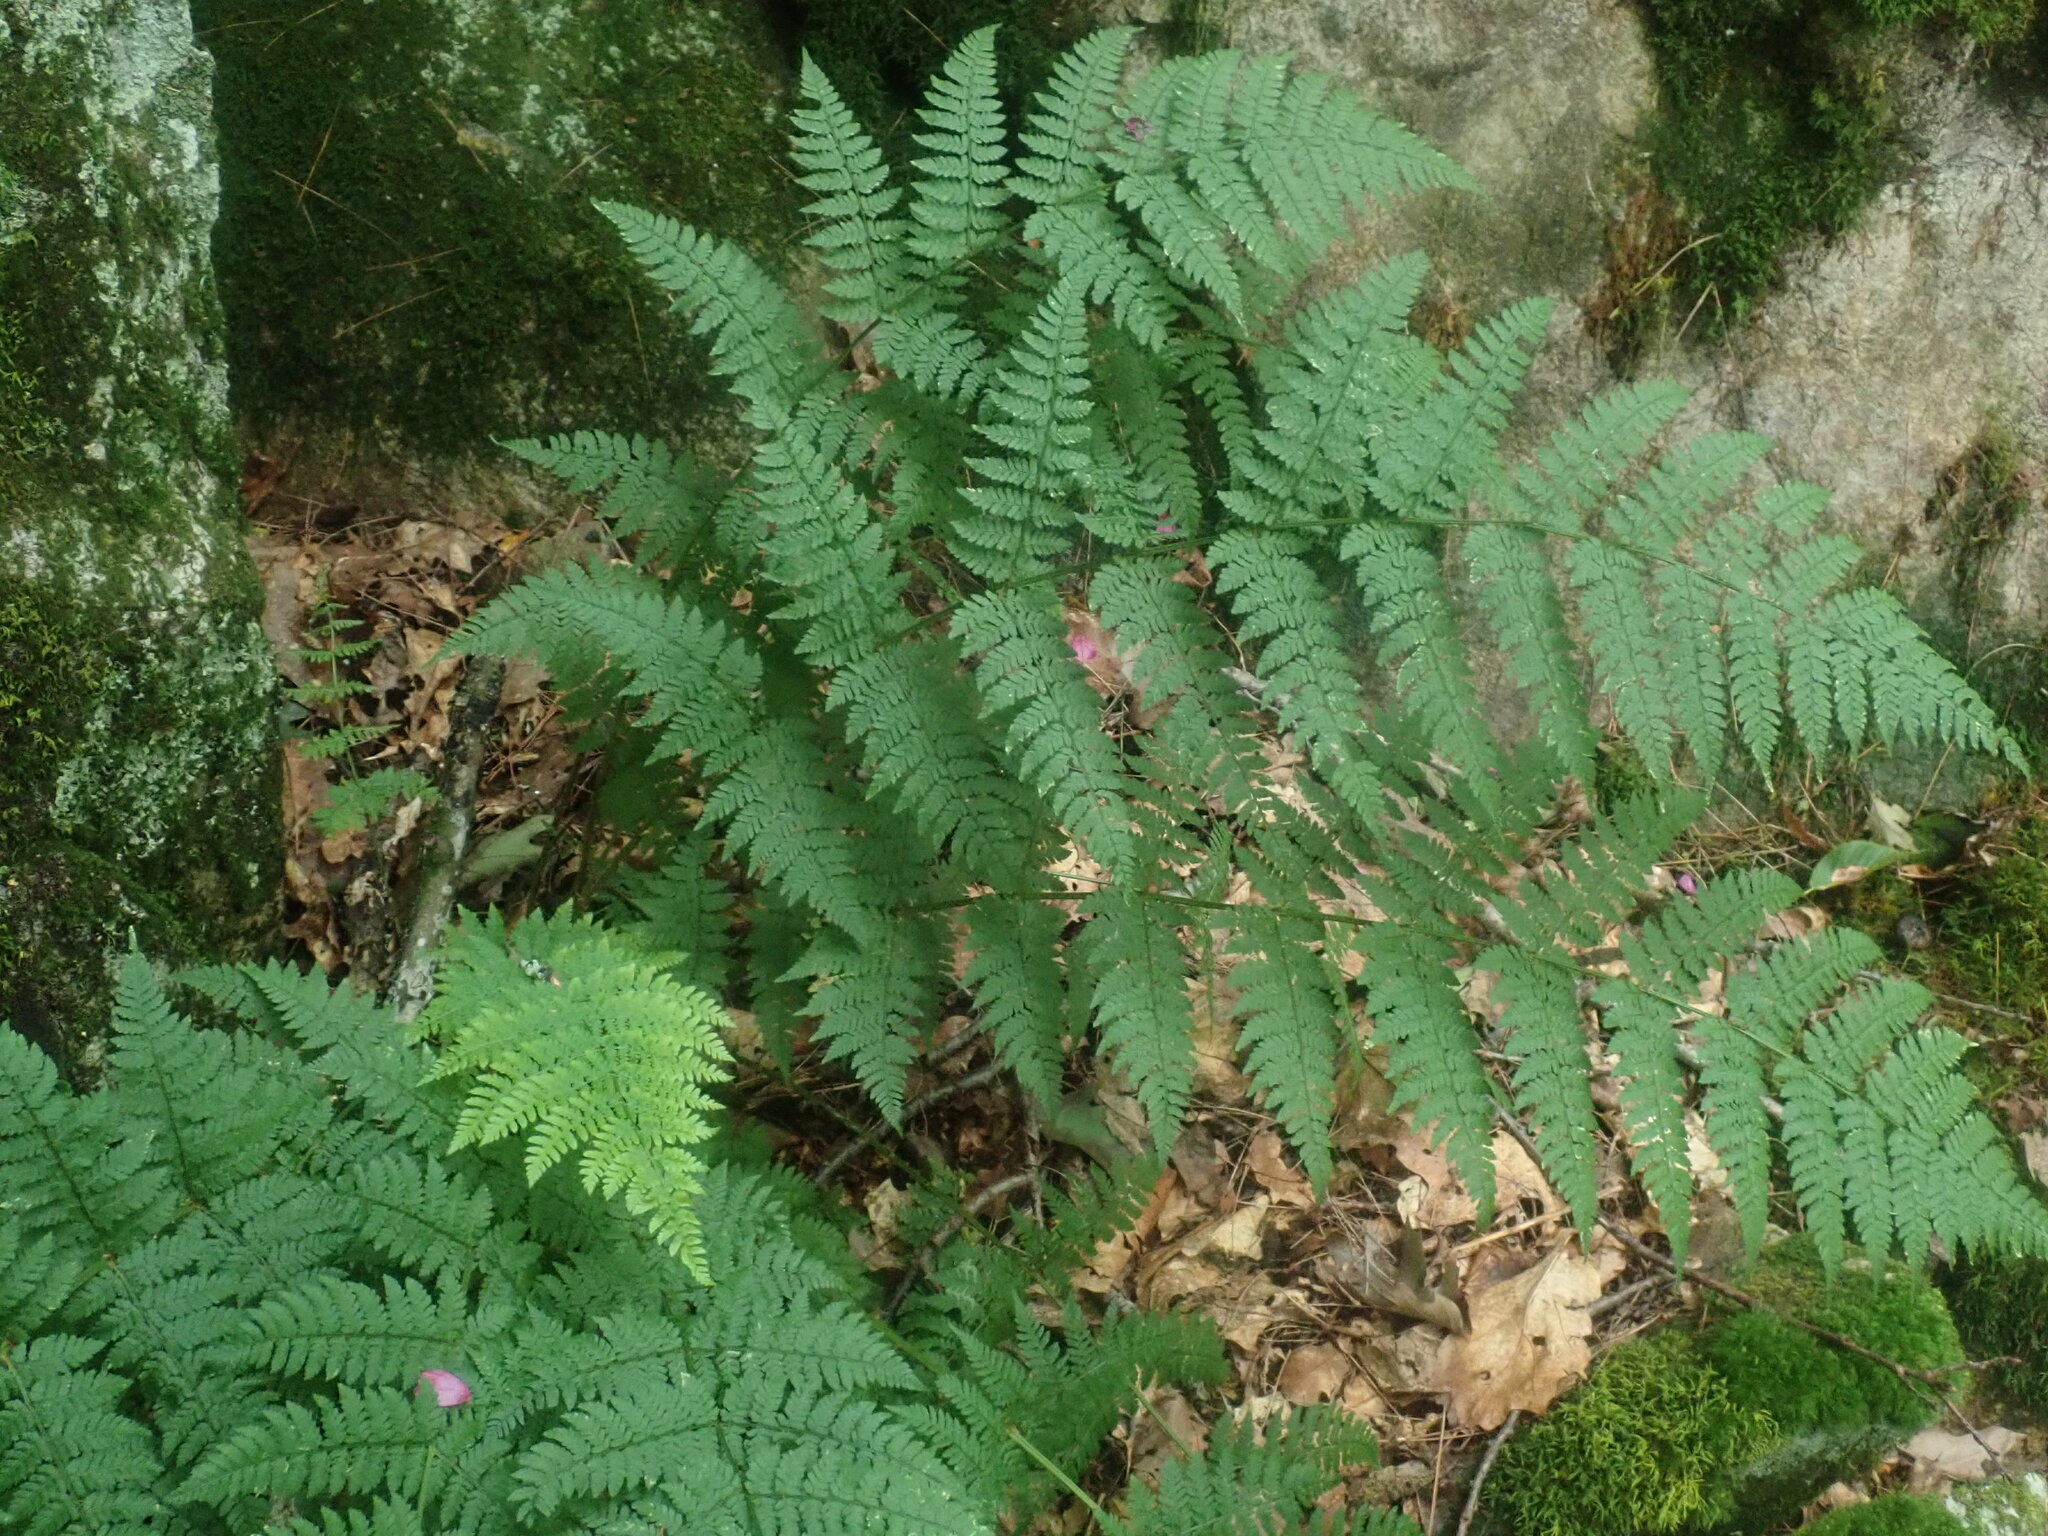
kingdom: Plantae
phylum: Tracheophyta
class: Polypodiopsida
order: Polypodiales
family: Dryopteridaceae
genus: Dryopteris
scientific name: Dryopteris intermedia
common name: Evergreen wood fern
